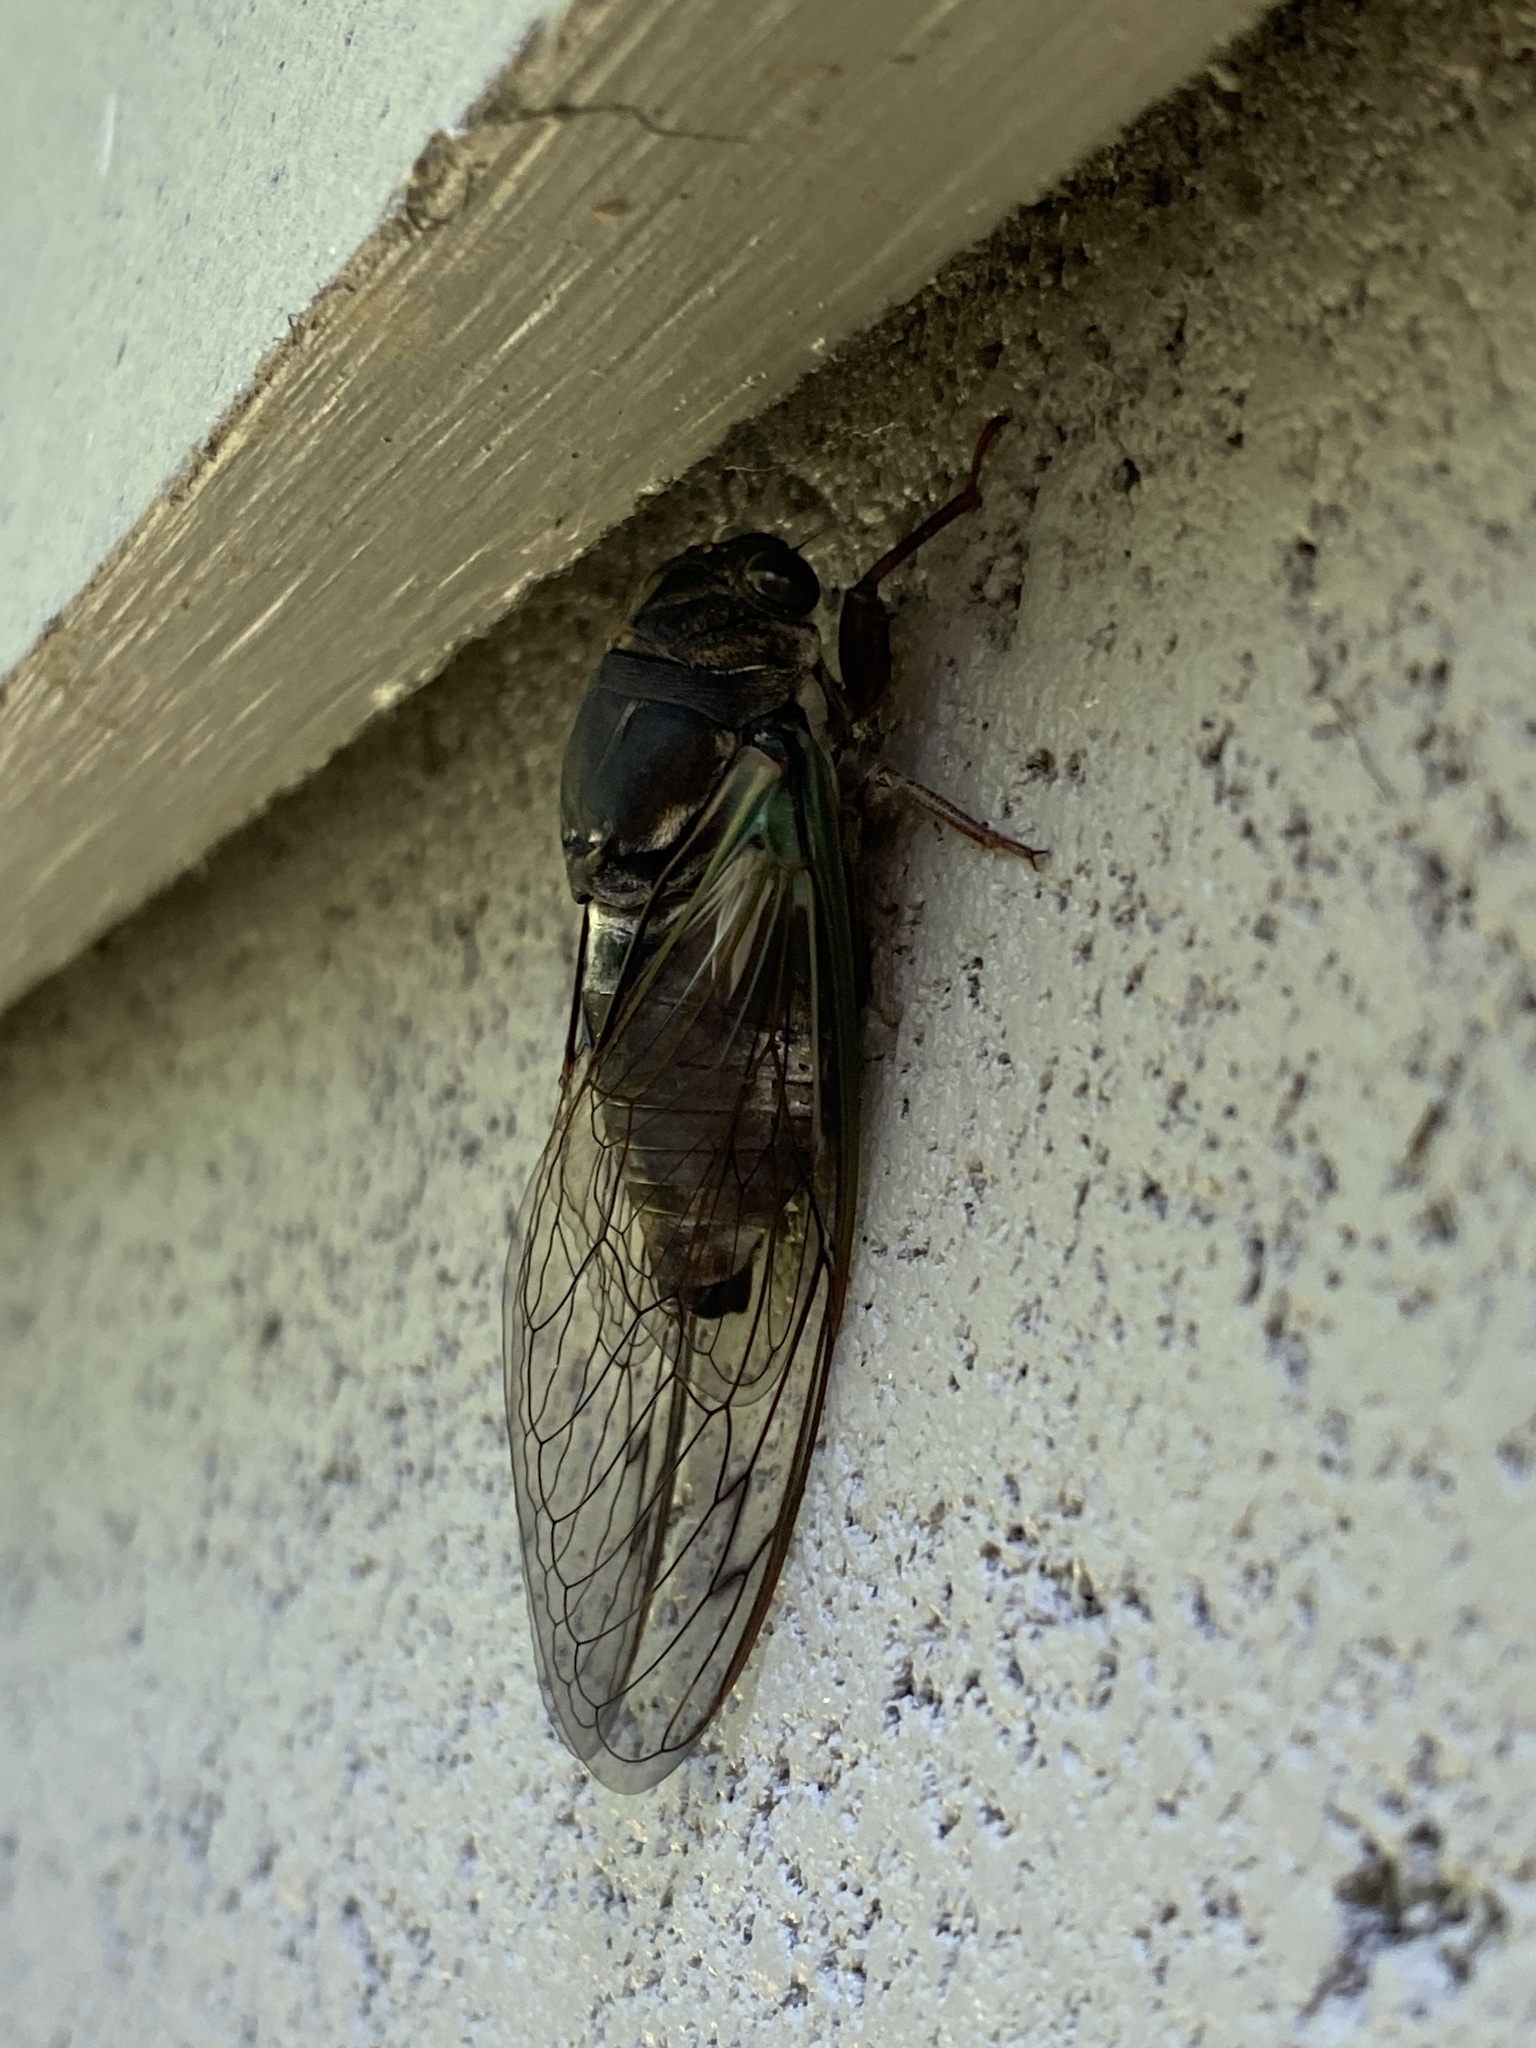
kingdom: Animalia
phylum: Arthropoda
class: Insecta
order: Hemiptera
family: Cicadidae
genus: Neotibicen
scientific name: Neotibicen lyricen
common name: Lyric cicada
